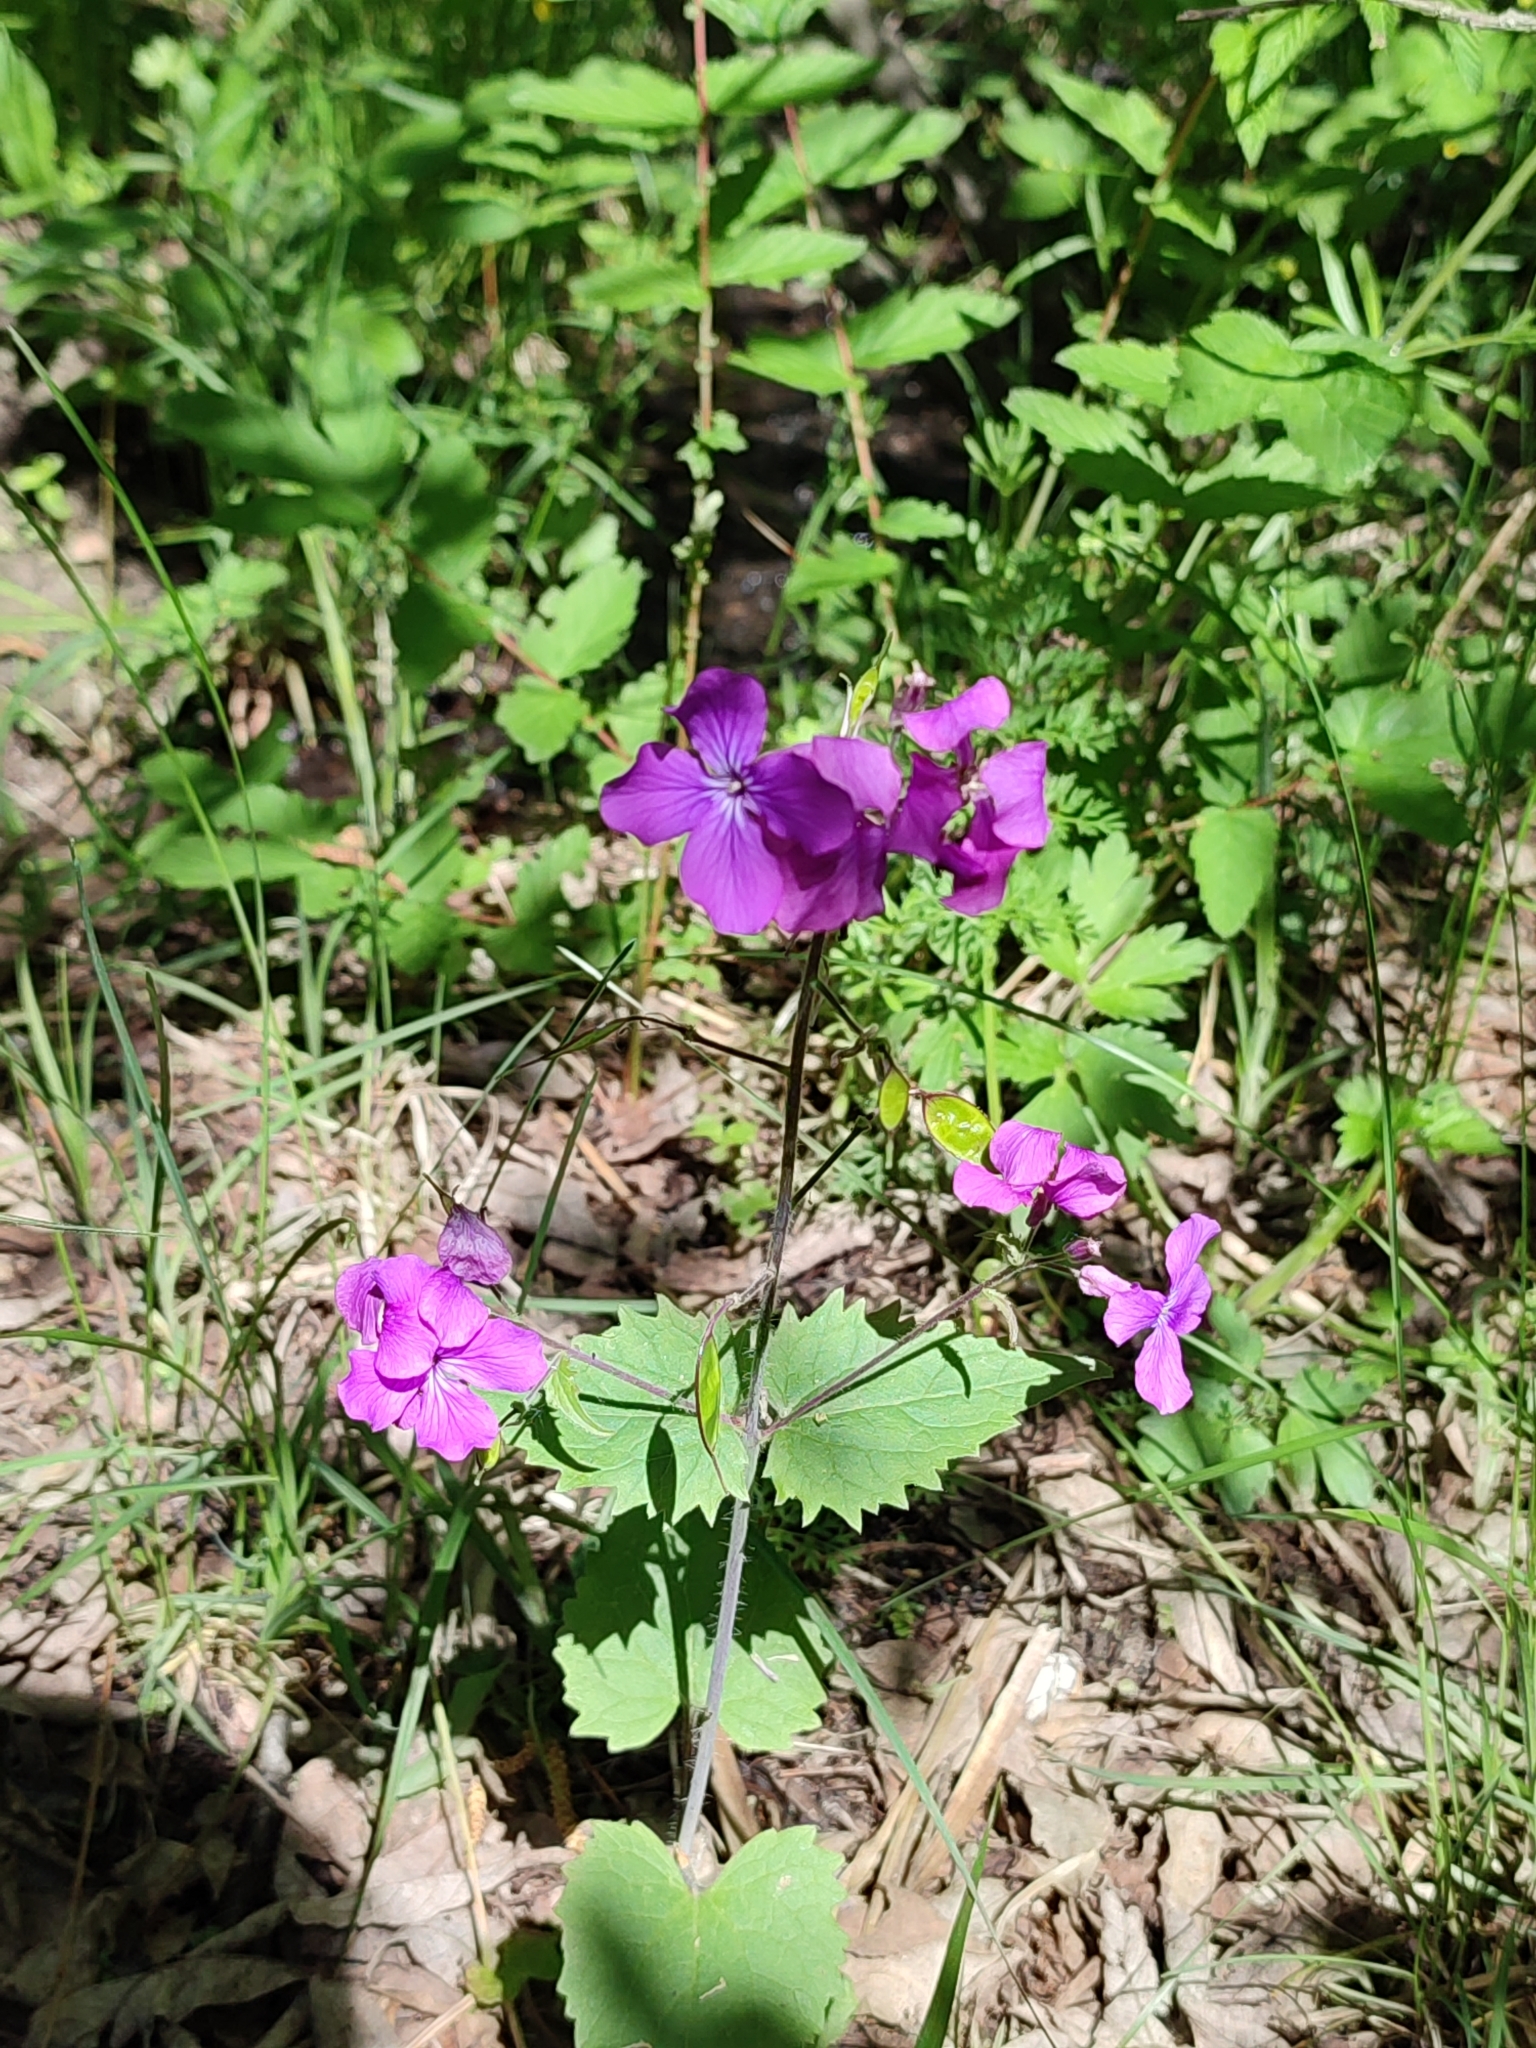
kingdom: Plantae
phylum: Tracheophyta
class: Magnoliopsida
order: Brassicales
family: Brassicaceae
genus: Lunaria
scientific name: Lunaria annua
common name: Honesty
